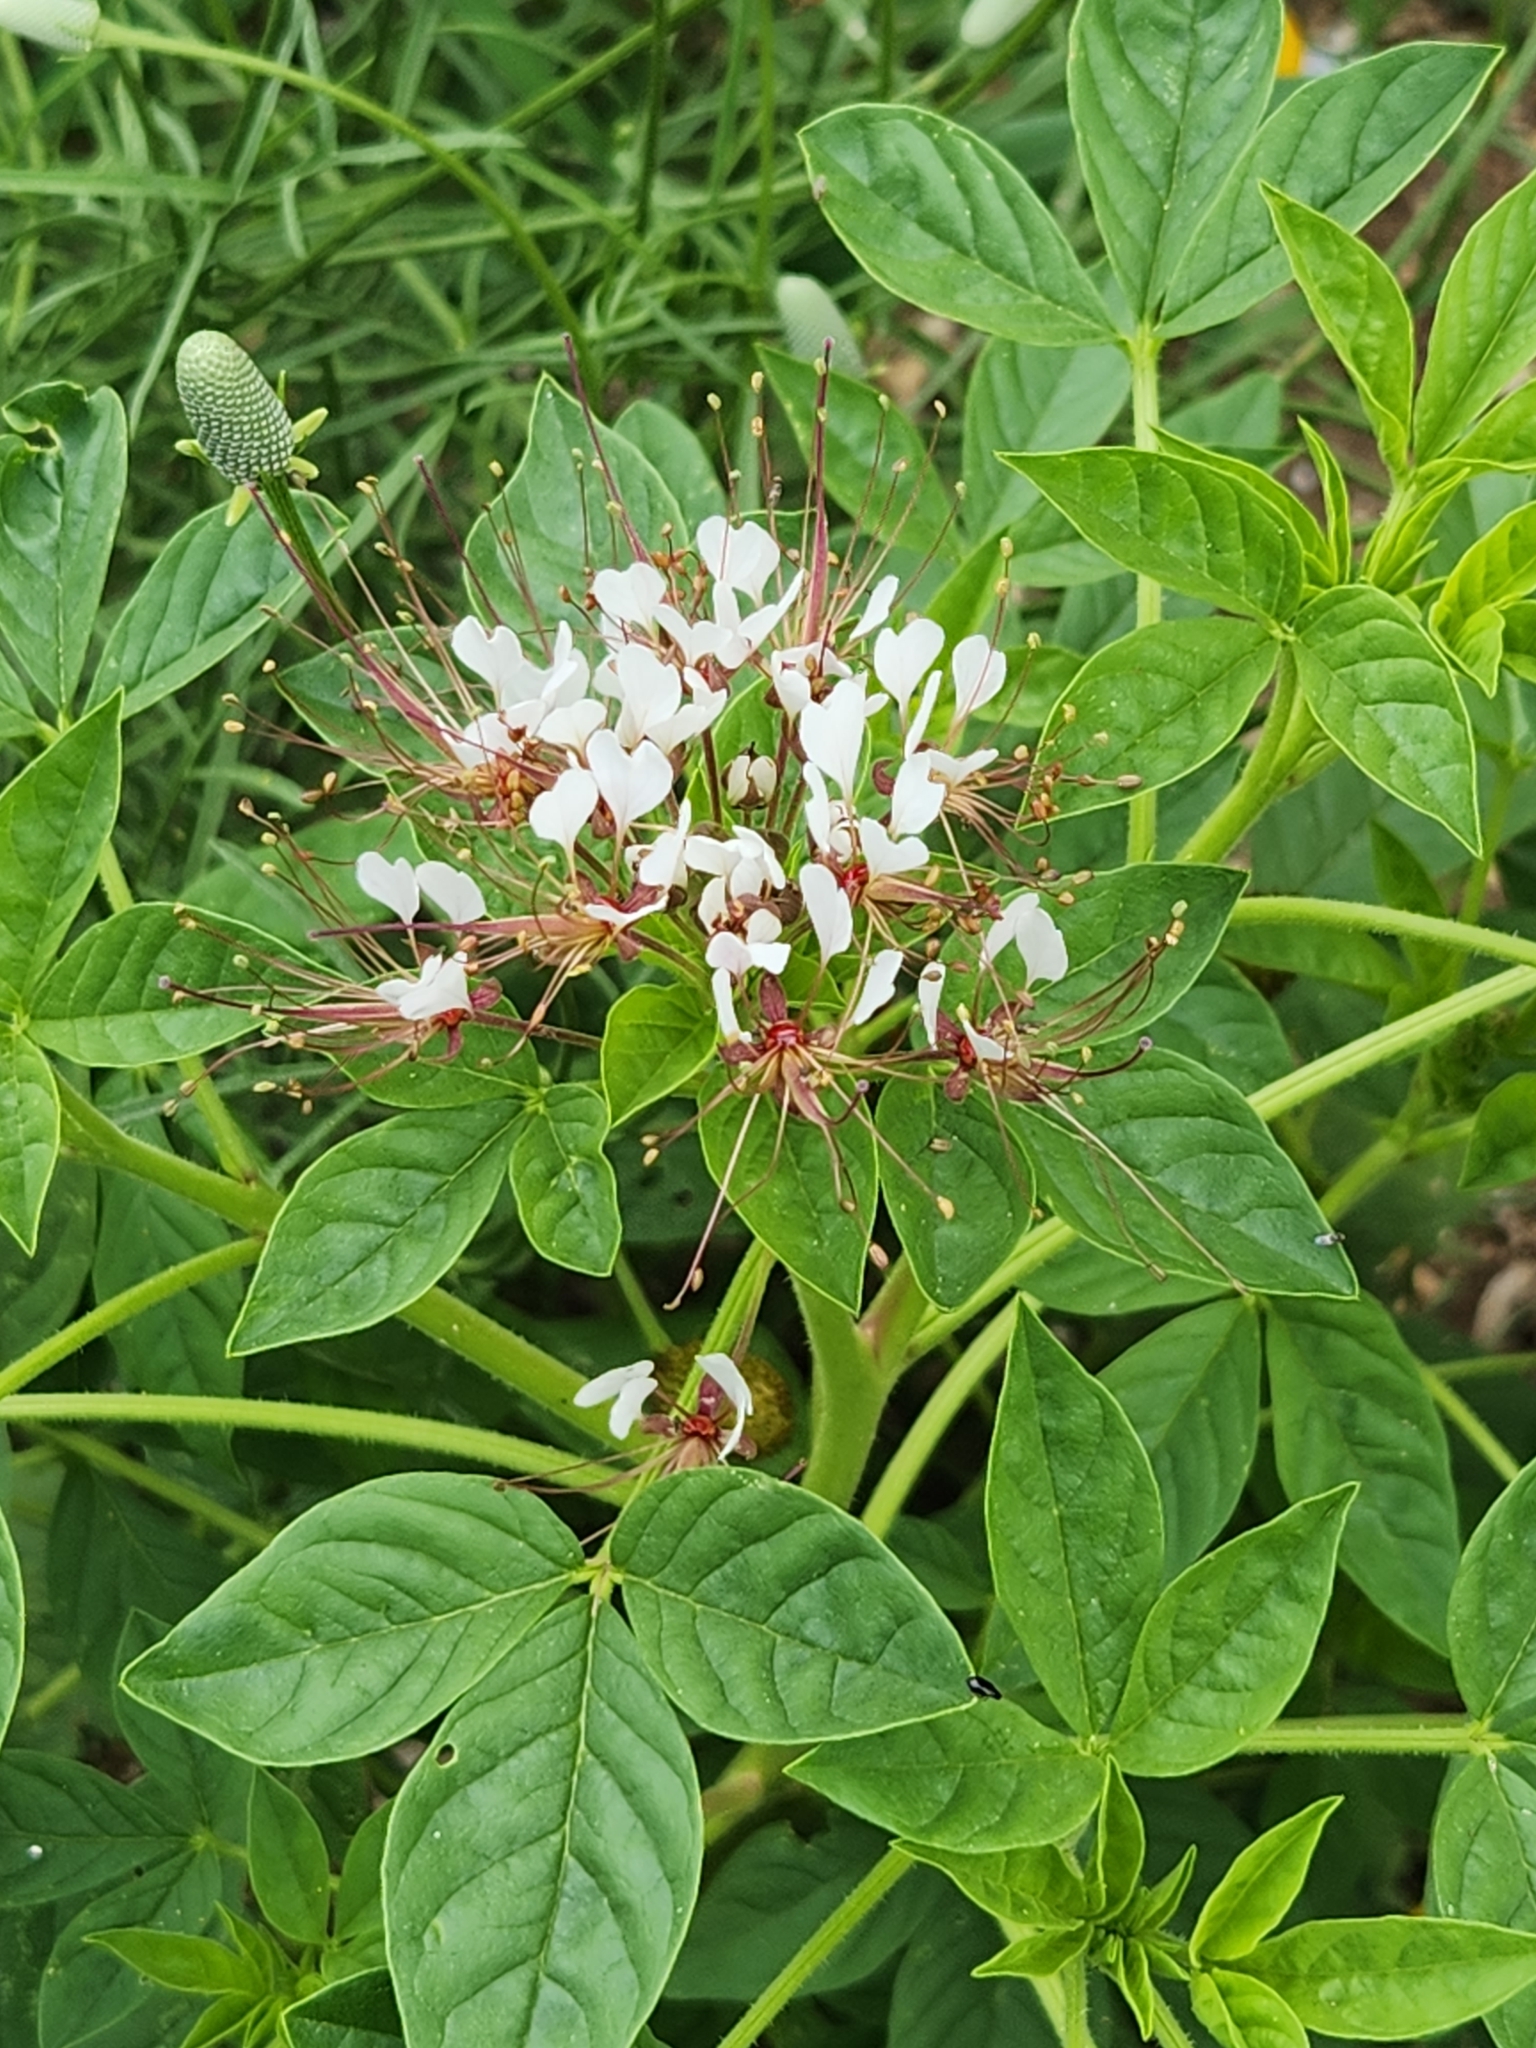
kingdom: Plantae
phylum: Tracheophyta
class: Magnoliopsida
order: Brassicales
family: Cleomaceae
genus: Polanisia
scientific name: Polanisia dodecandra
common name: Clammyweed
